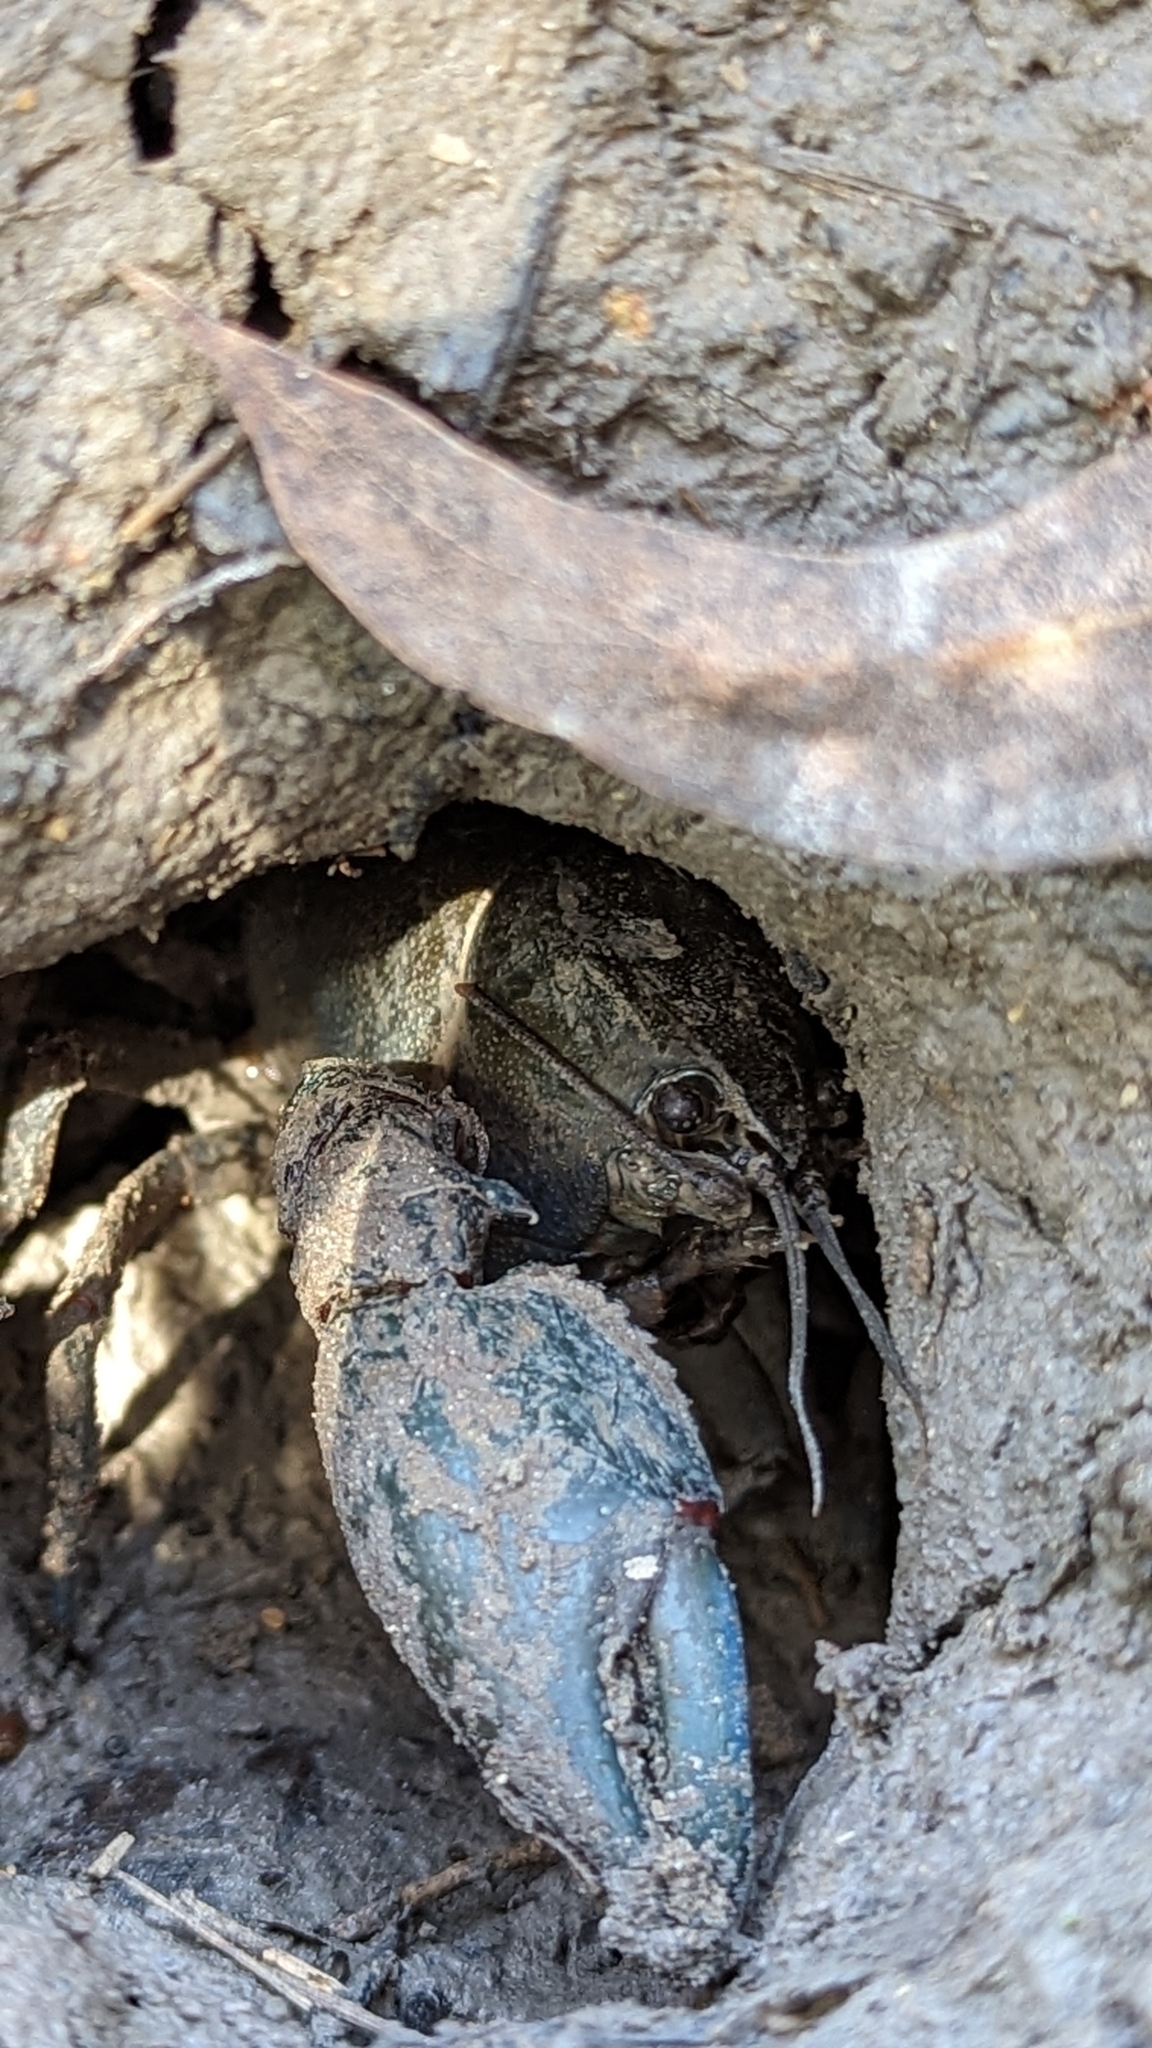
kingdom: Animalia
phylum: Arthropoda
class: Malacostraca
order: Decapoda
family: Parastacidae
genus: Cherax
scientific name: Cherax destructor
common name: Yabby
